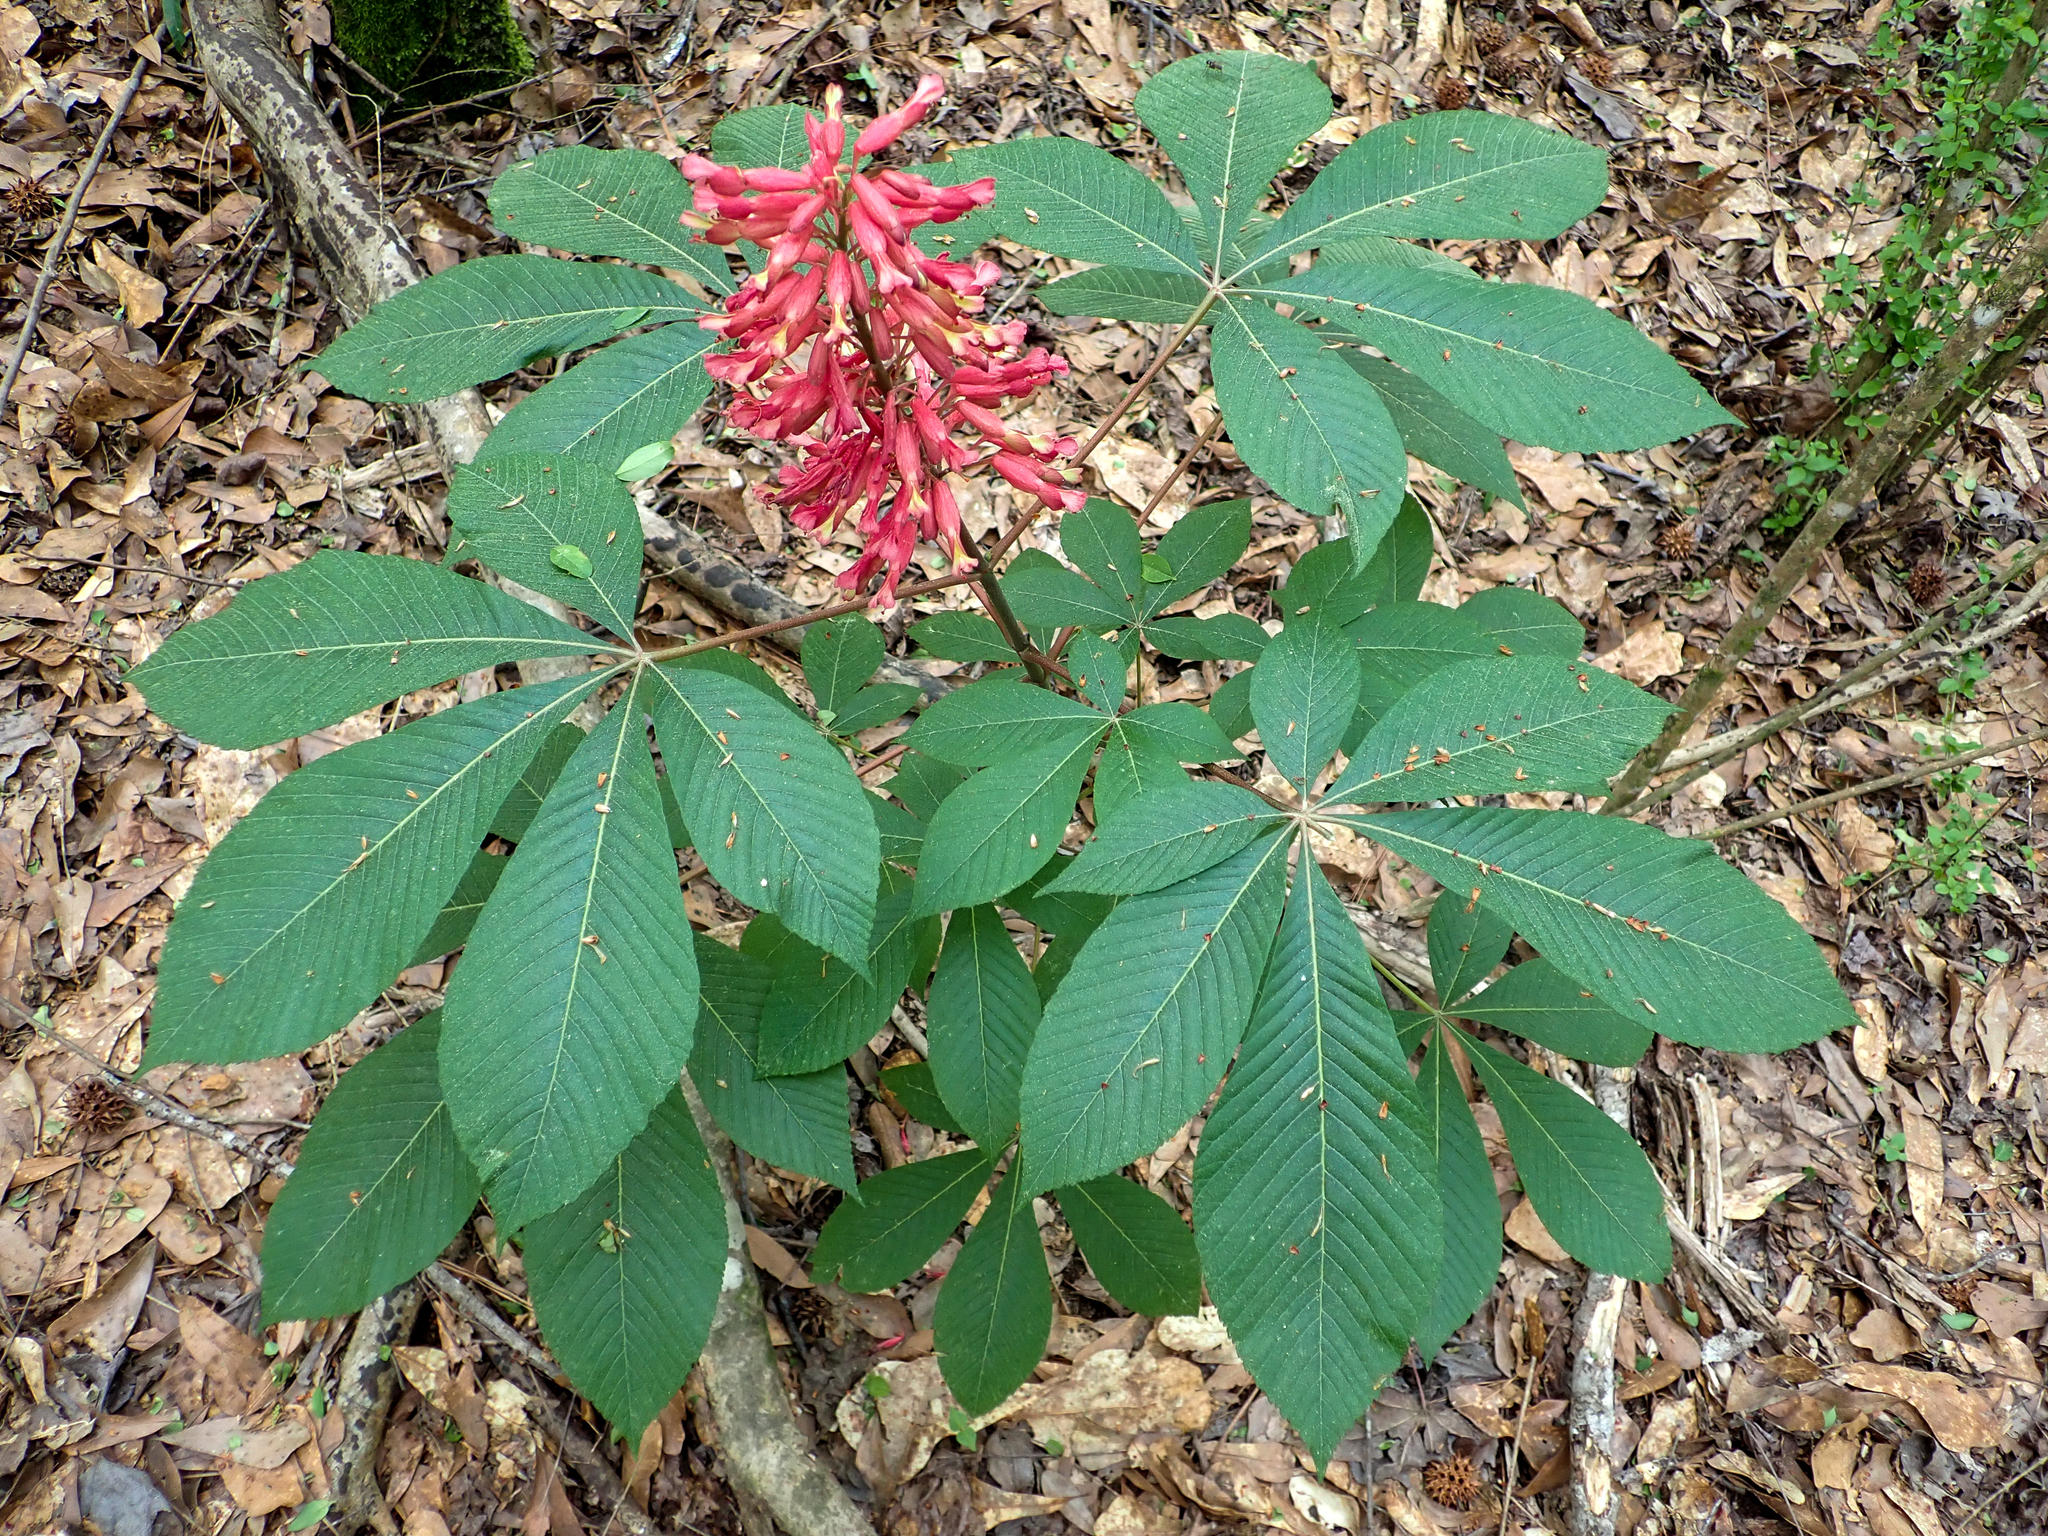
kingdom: Plantae
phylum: Tracheophyta
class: Magnoliopsida
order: Sapindales
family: Sapindaceae
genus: Aesculus
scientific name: Aesculus pavia
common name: Red buckeye
